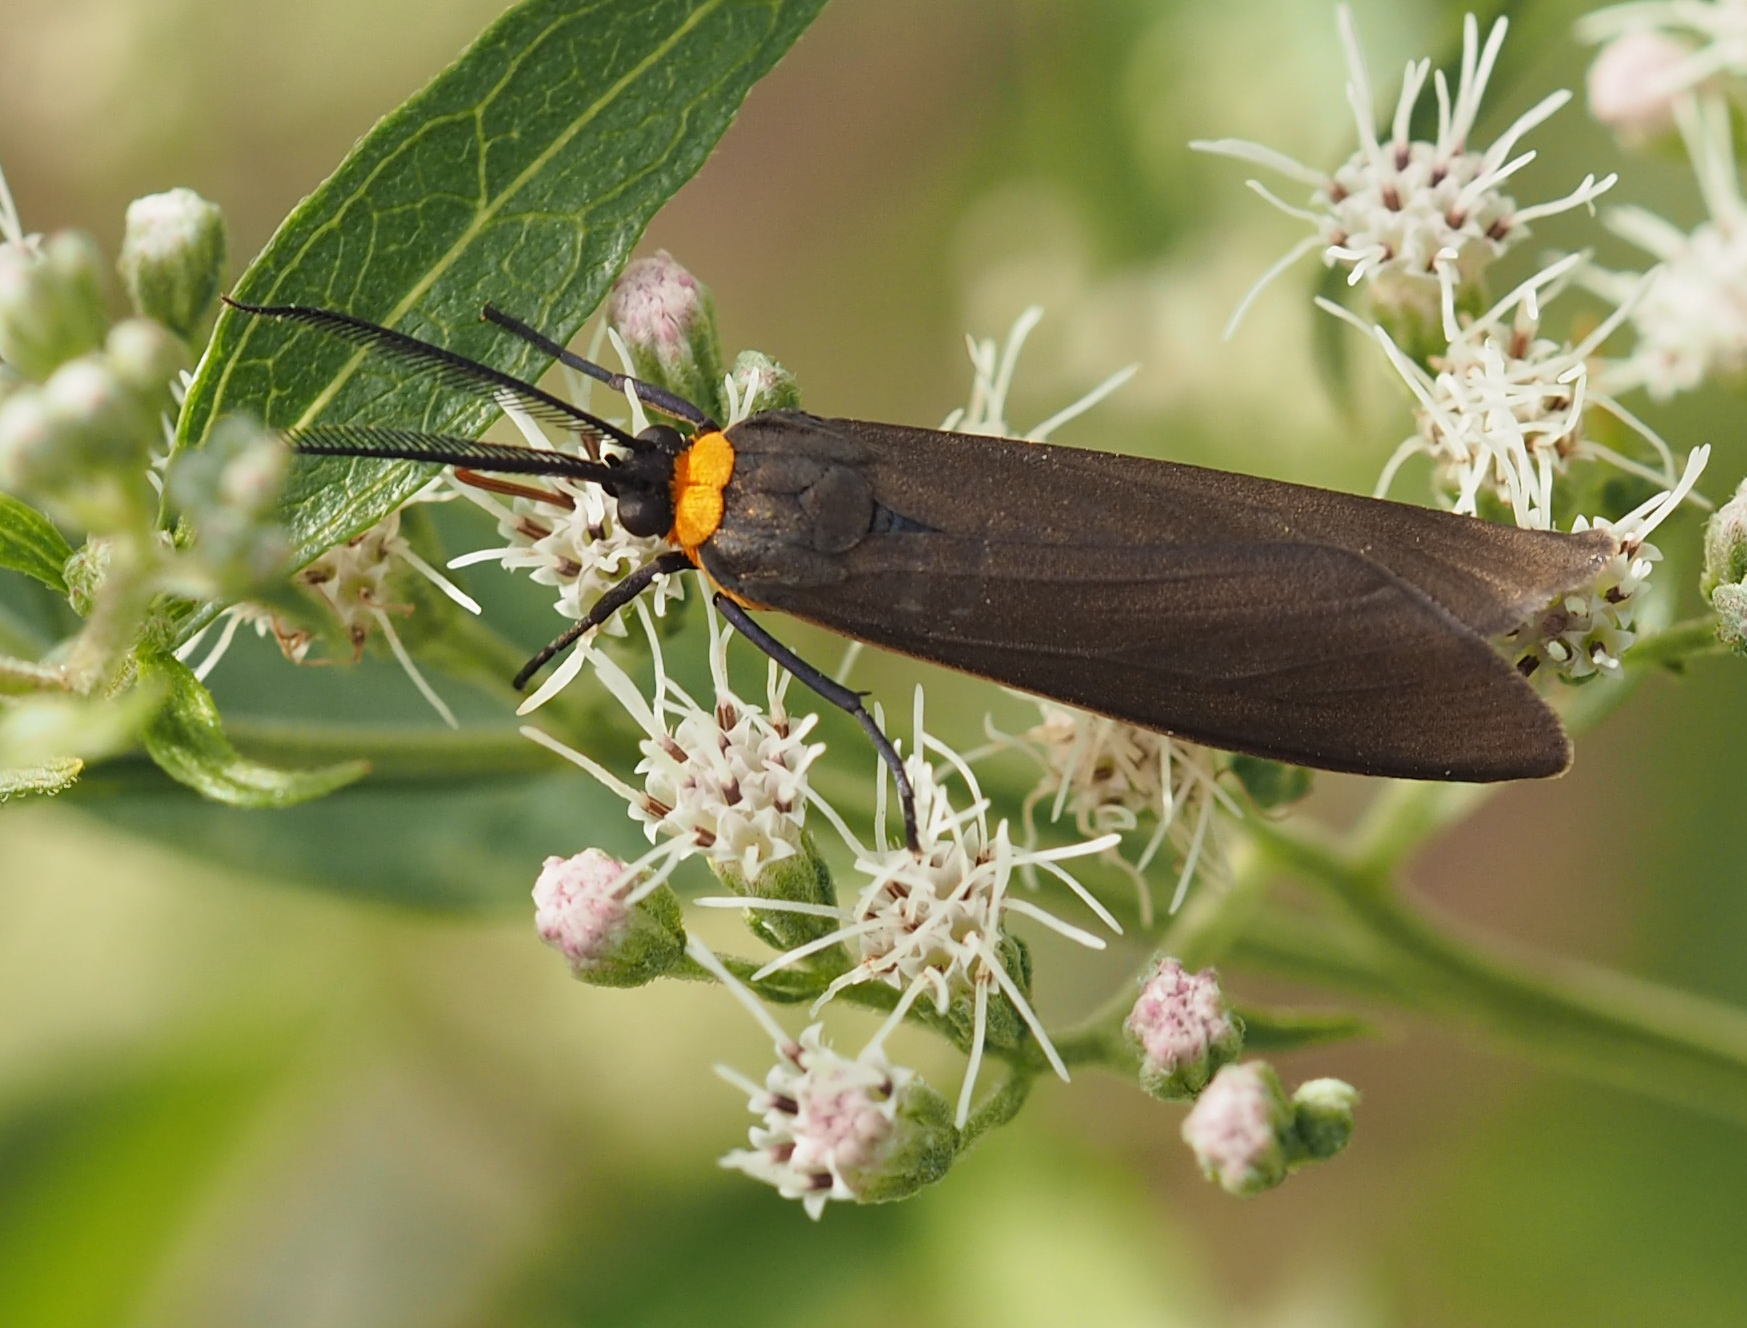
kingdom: Animalia
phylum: Arthropoda
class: Insecta
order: Lepidoptera
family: Erebidae
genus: Cisseps
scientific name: Cisseps fulvicollis
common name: Yellow-collared scape moth
